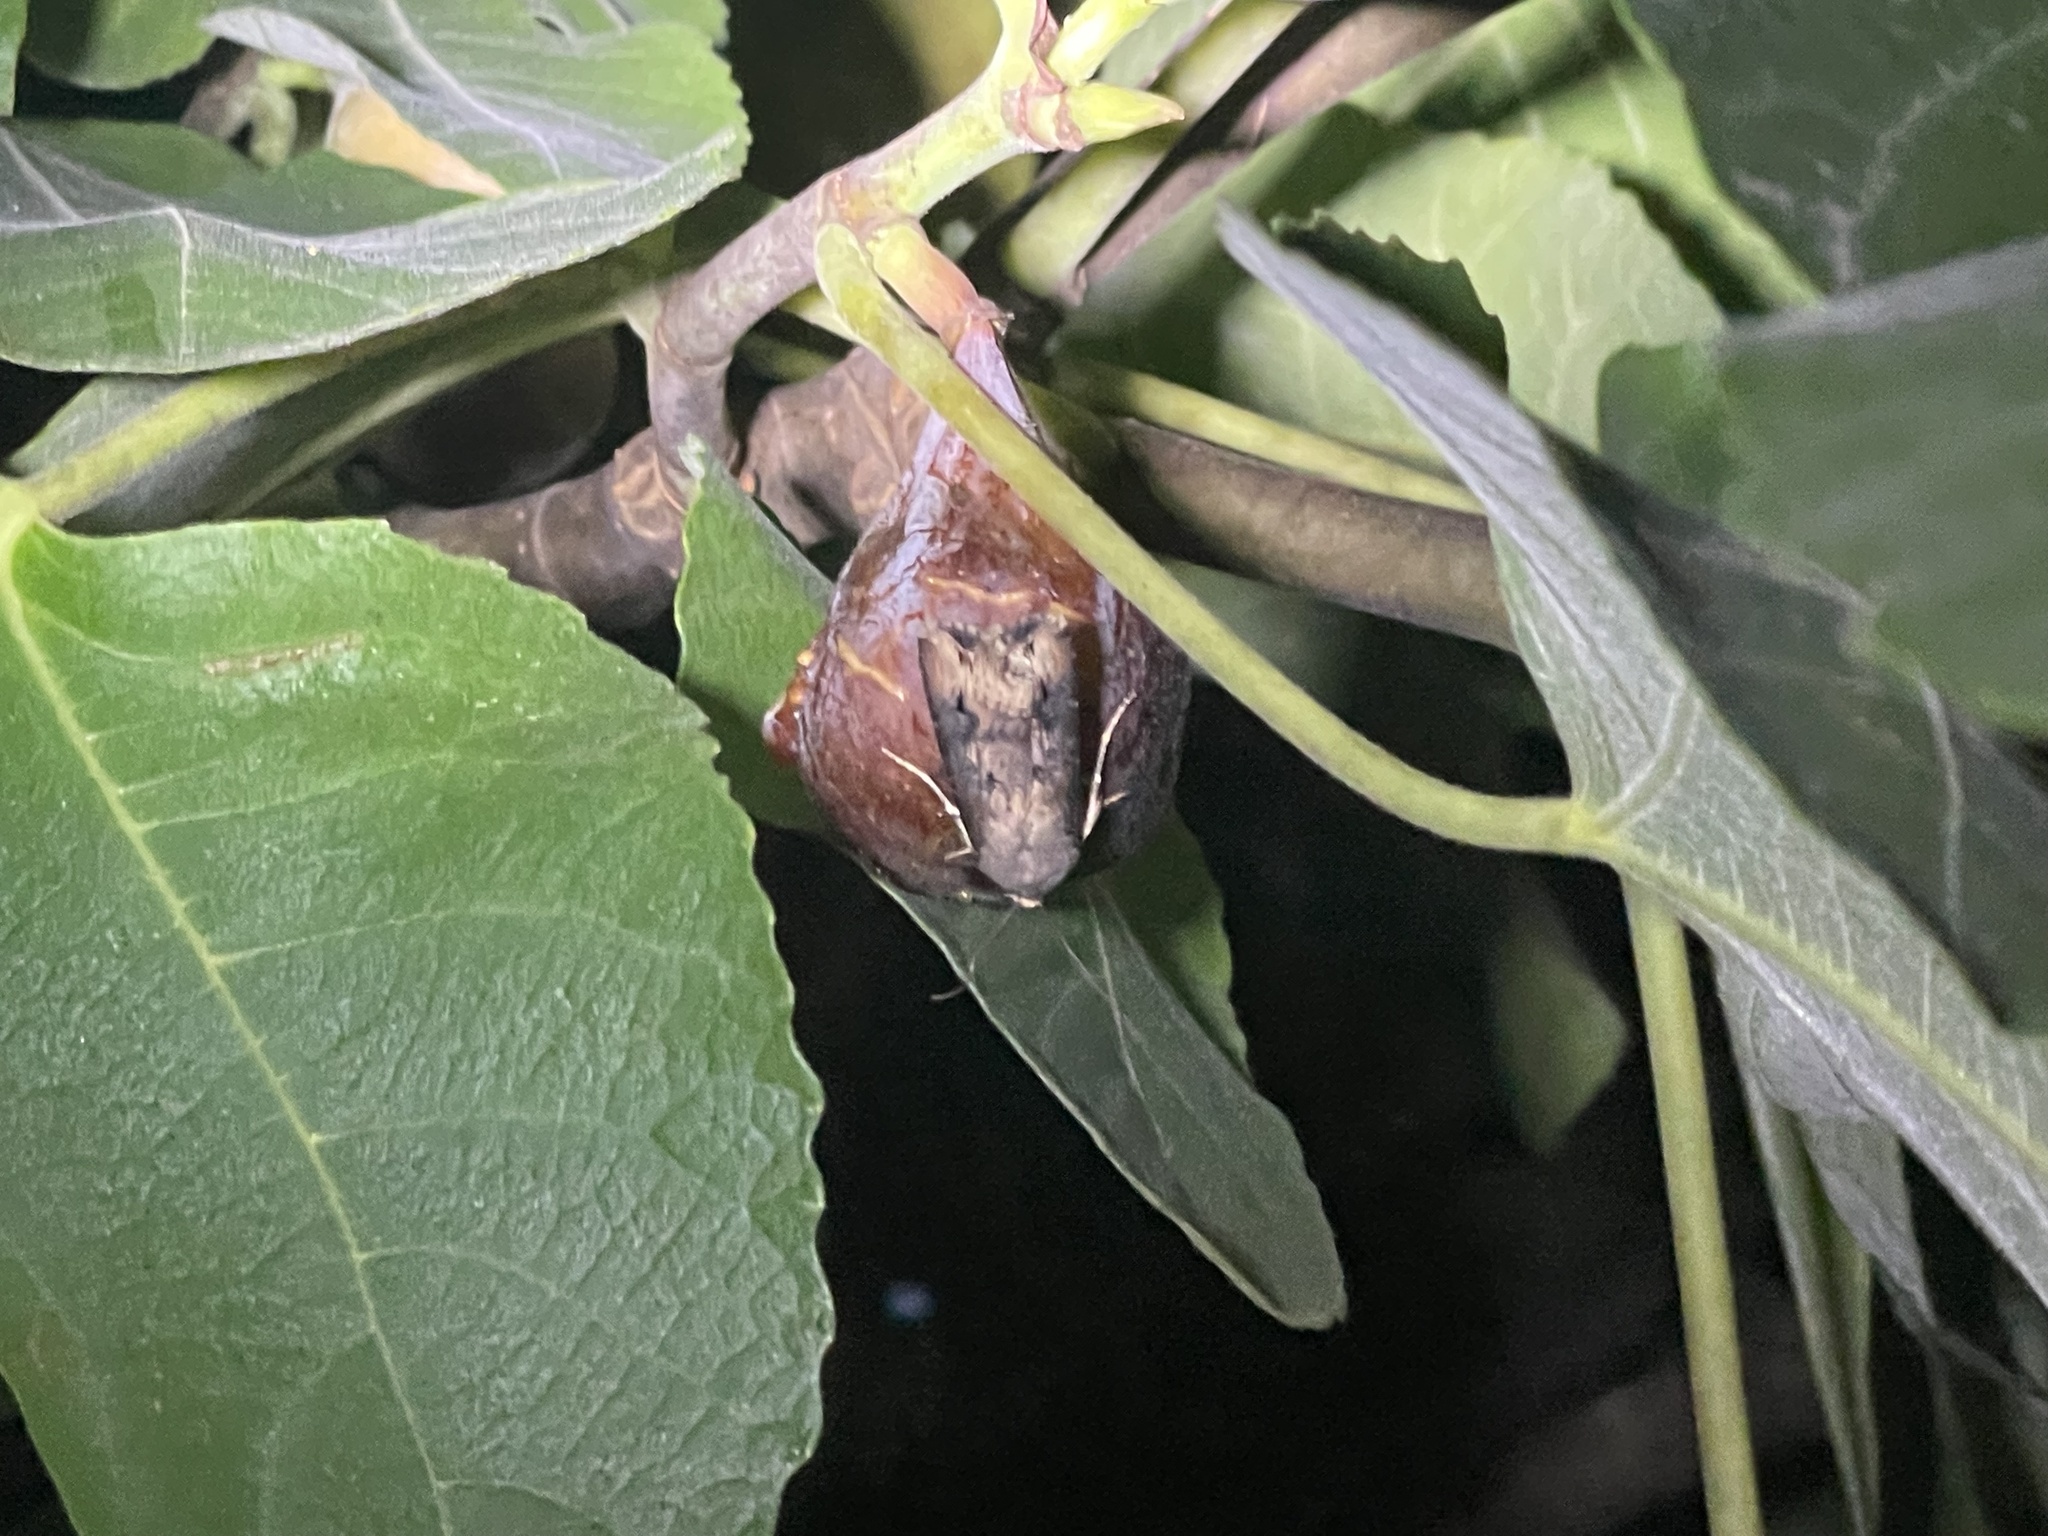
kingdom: Animalia
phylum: Arthropoda
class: Insecta
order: Lepidoptera
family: Noctuidae
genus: Agrotis
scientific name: Agrotis ipsilon
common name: Dark sword-grass
